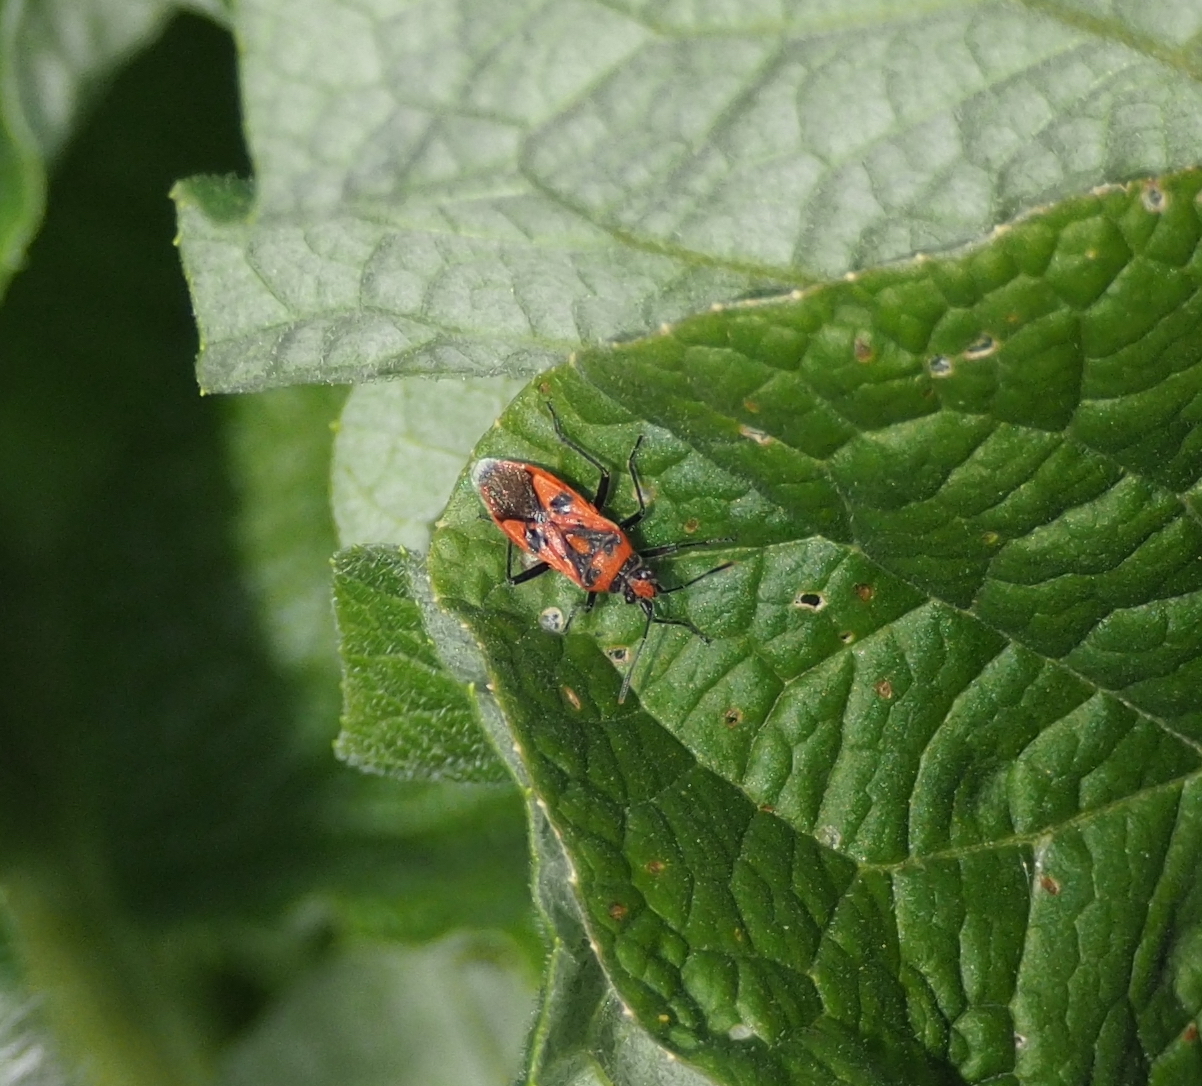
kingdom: Animalia
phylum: Arthropoda
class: Insecta
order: Hemiptera
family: Rhopalidae
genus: Corizus
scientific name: Corizus hyoscyami
